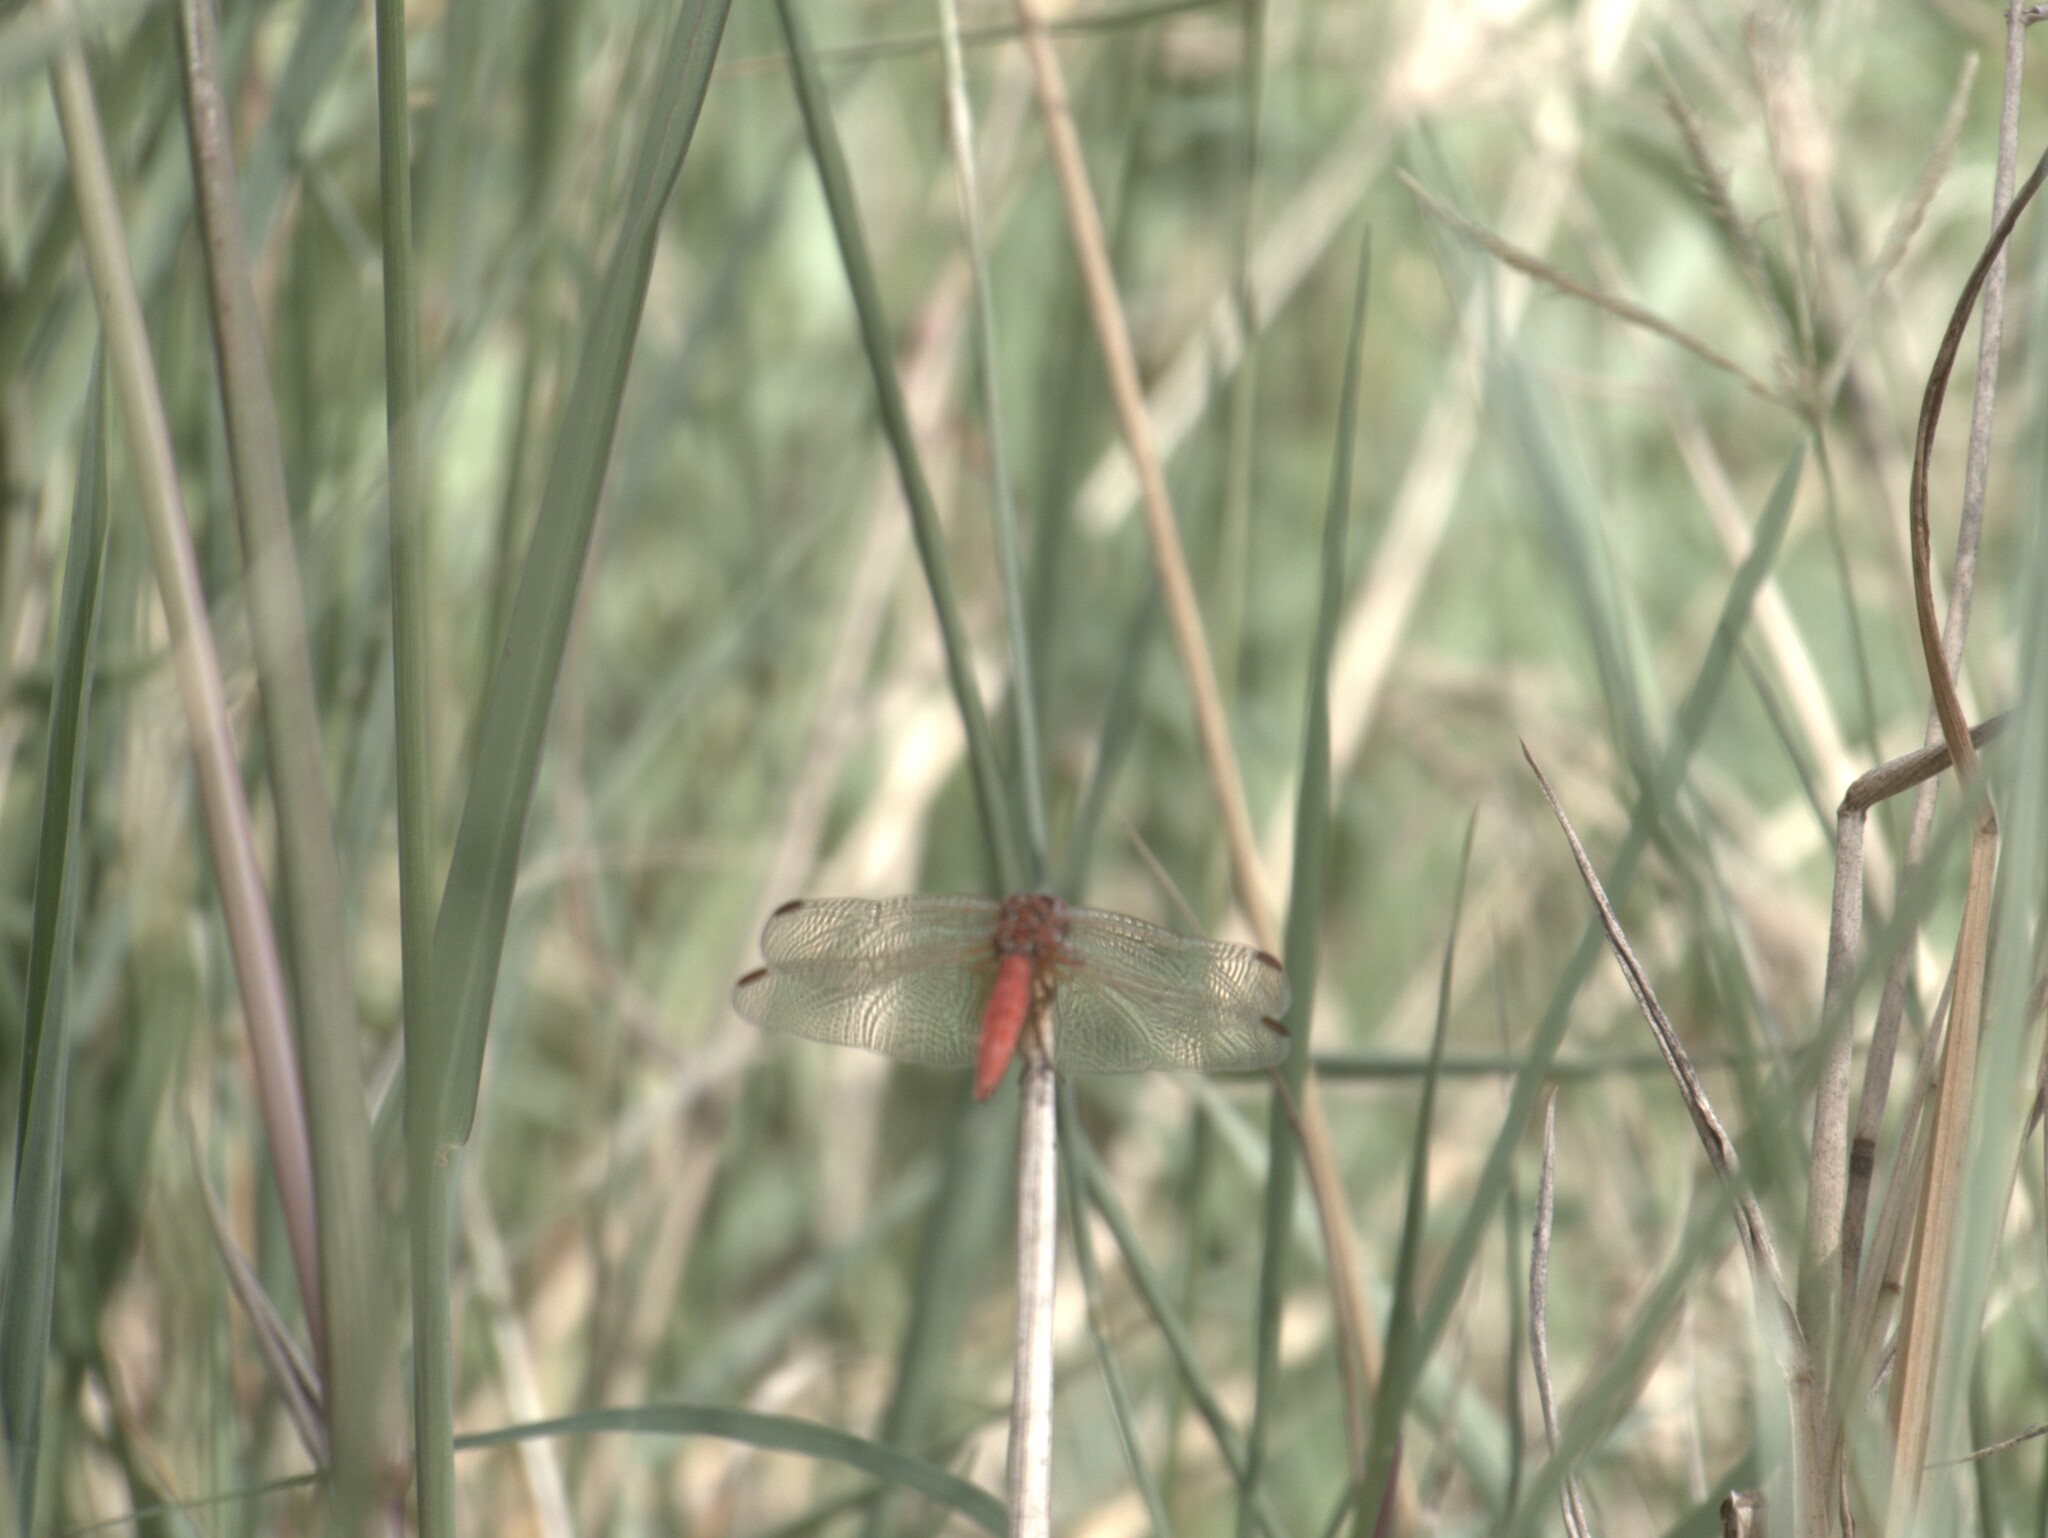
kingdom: Animalia
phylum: Arthropoda
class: Insecta
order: Odonata
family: Libellulidae
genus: Diplacodes
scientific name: Diplacodes haematodes
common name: Scarlet percher
